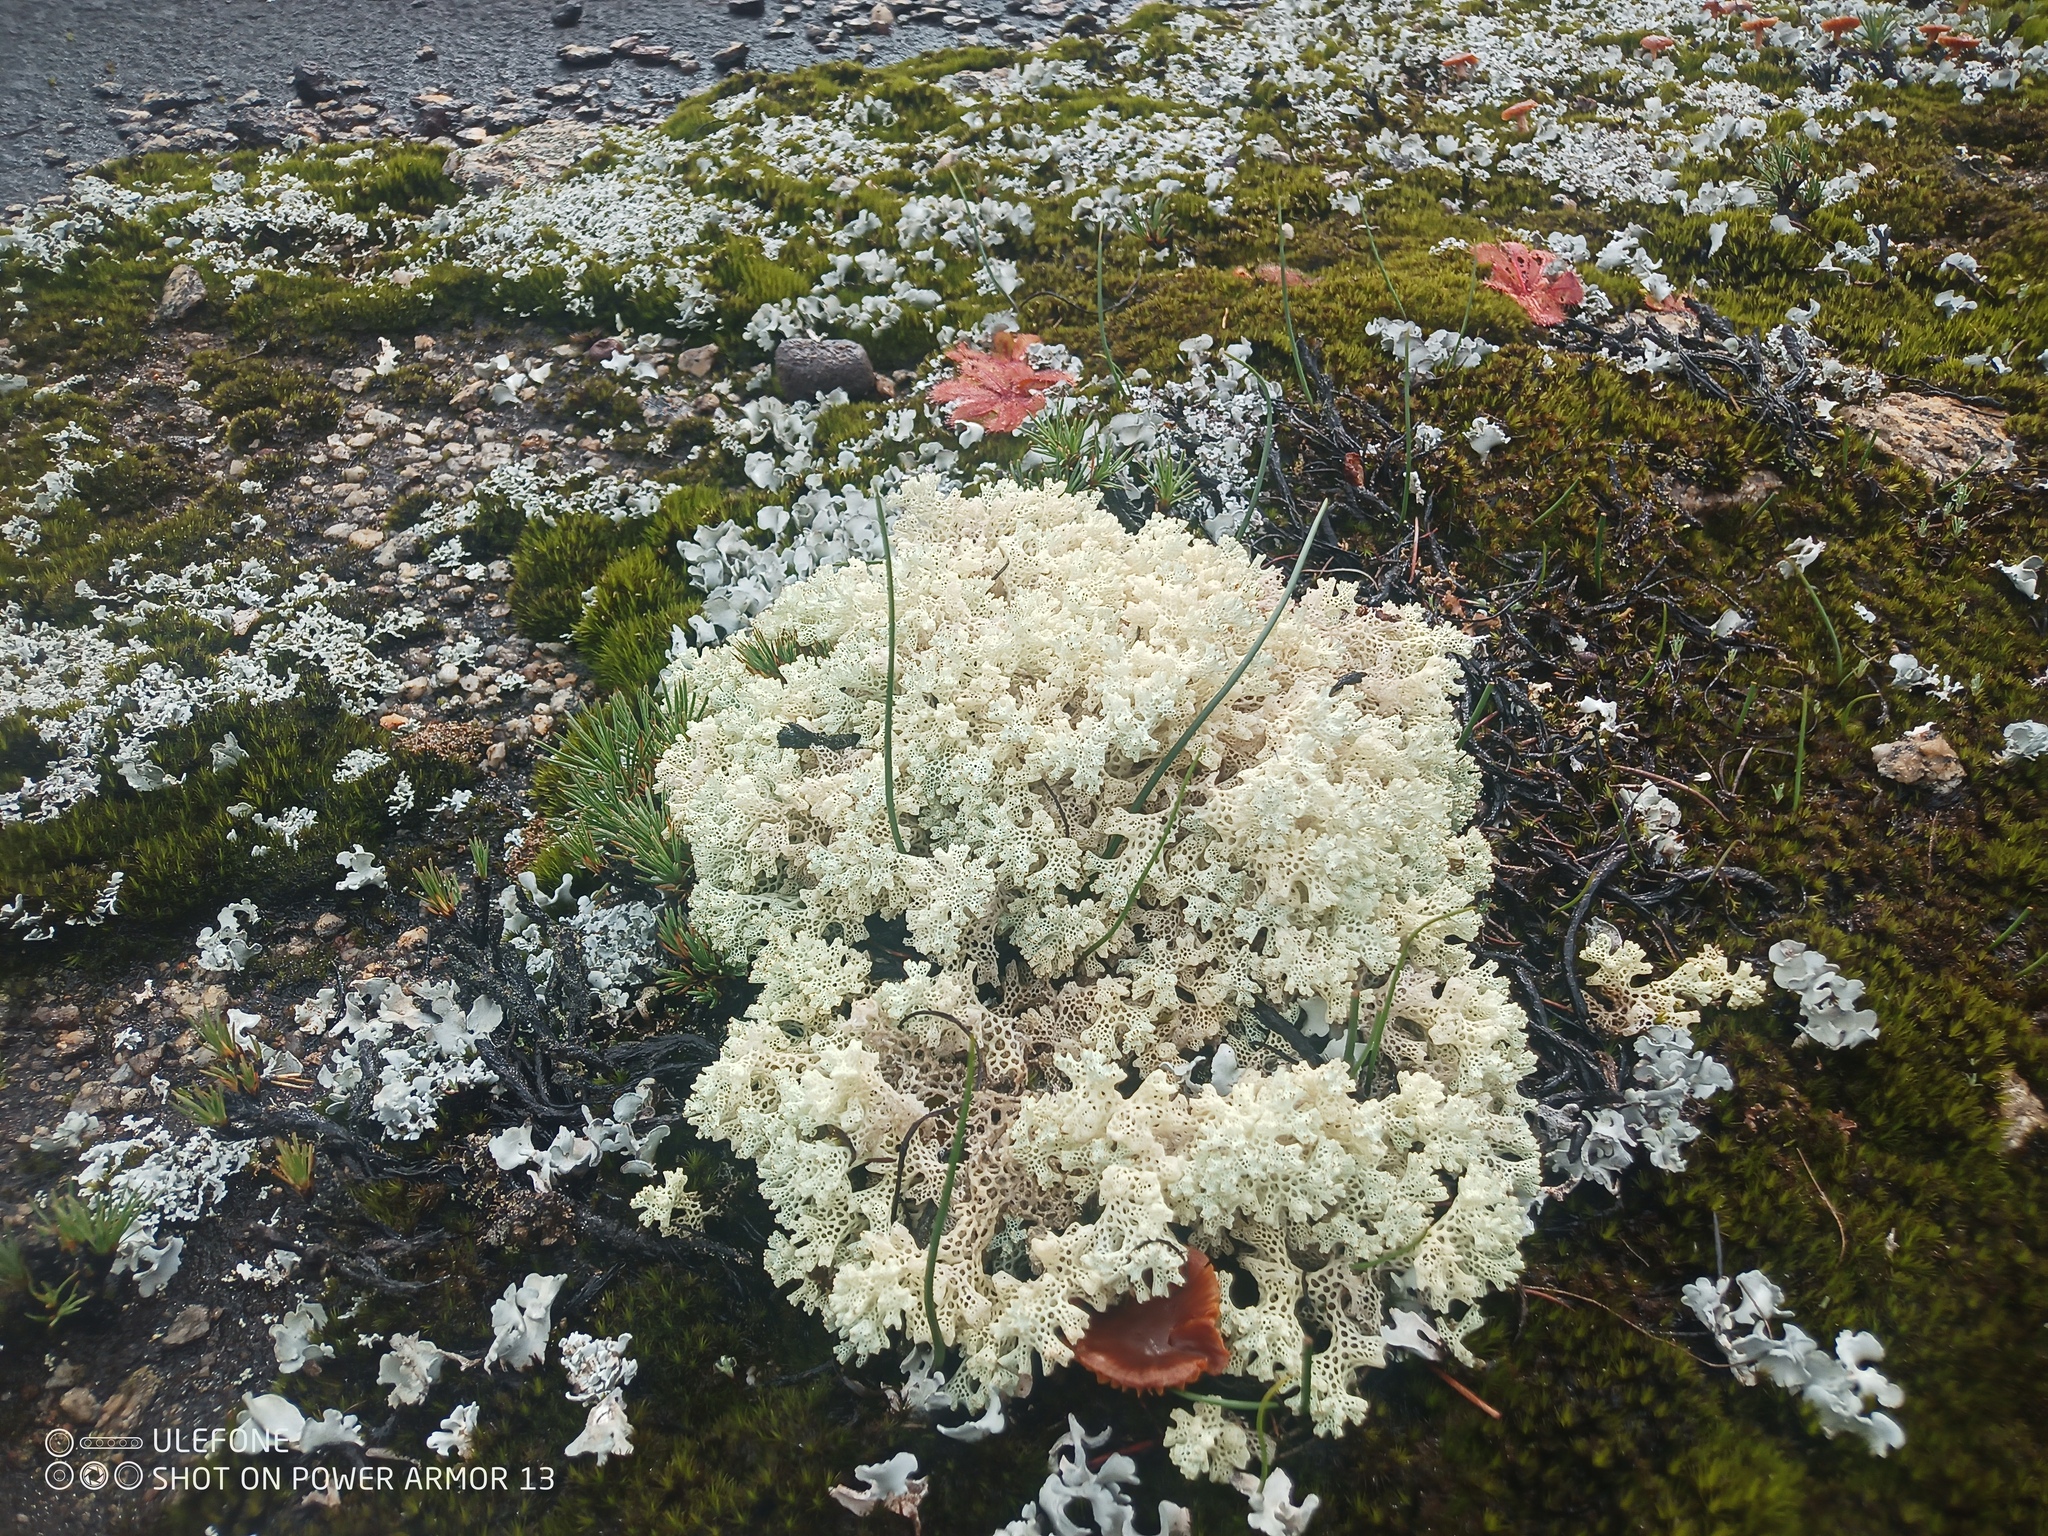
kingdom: Fungi
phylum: Ascomycota
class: Lecanoromycetes
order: Lecanorales
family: Cladoniaceae
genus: Pulchrocladia
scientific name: Pulchrocladia ferdinandii
